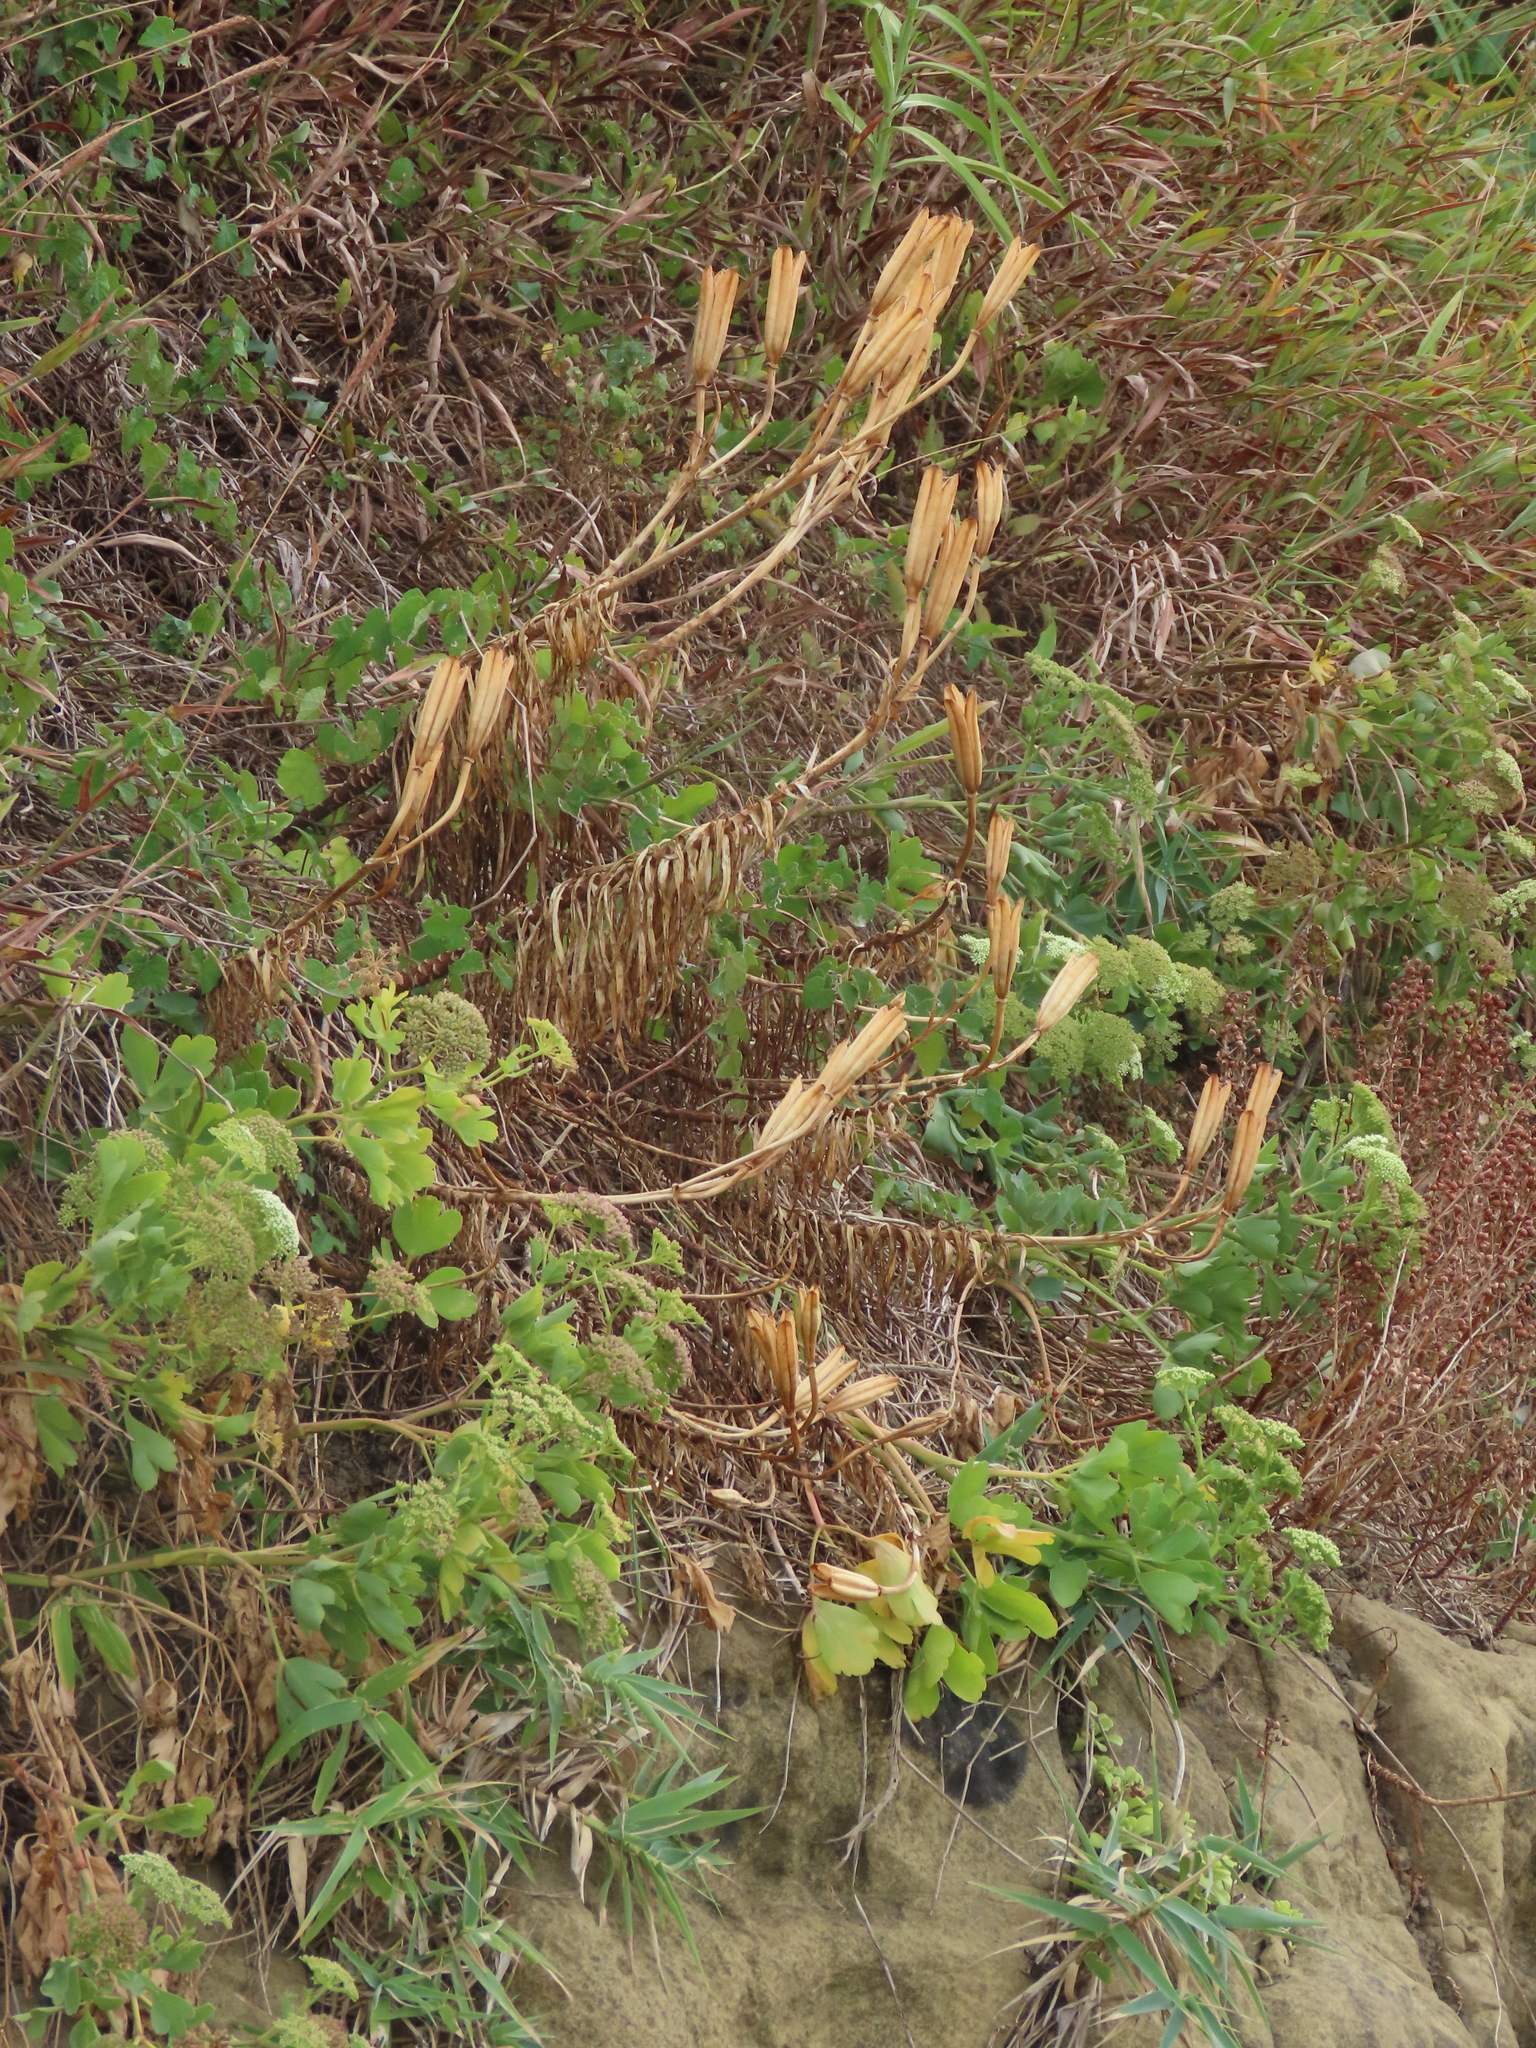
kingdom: Plantae
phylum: Tracheophyta
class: Liliopsida
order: Liliales
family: Liliaceae
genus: Lilium
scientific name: Lilium longiflorum
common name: Easter lily
